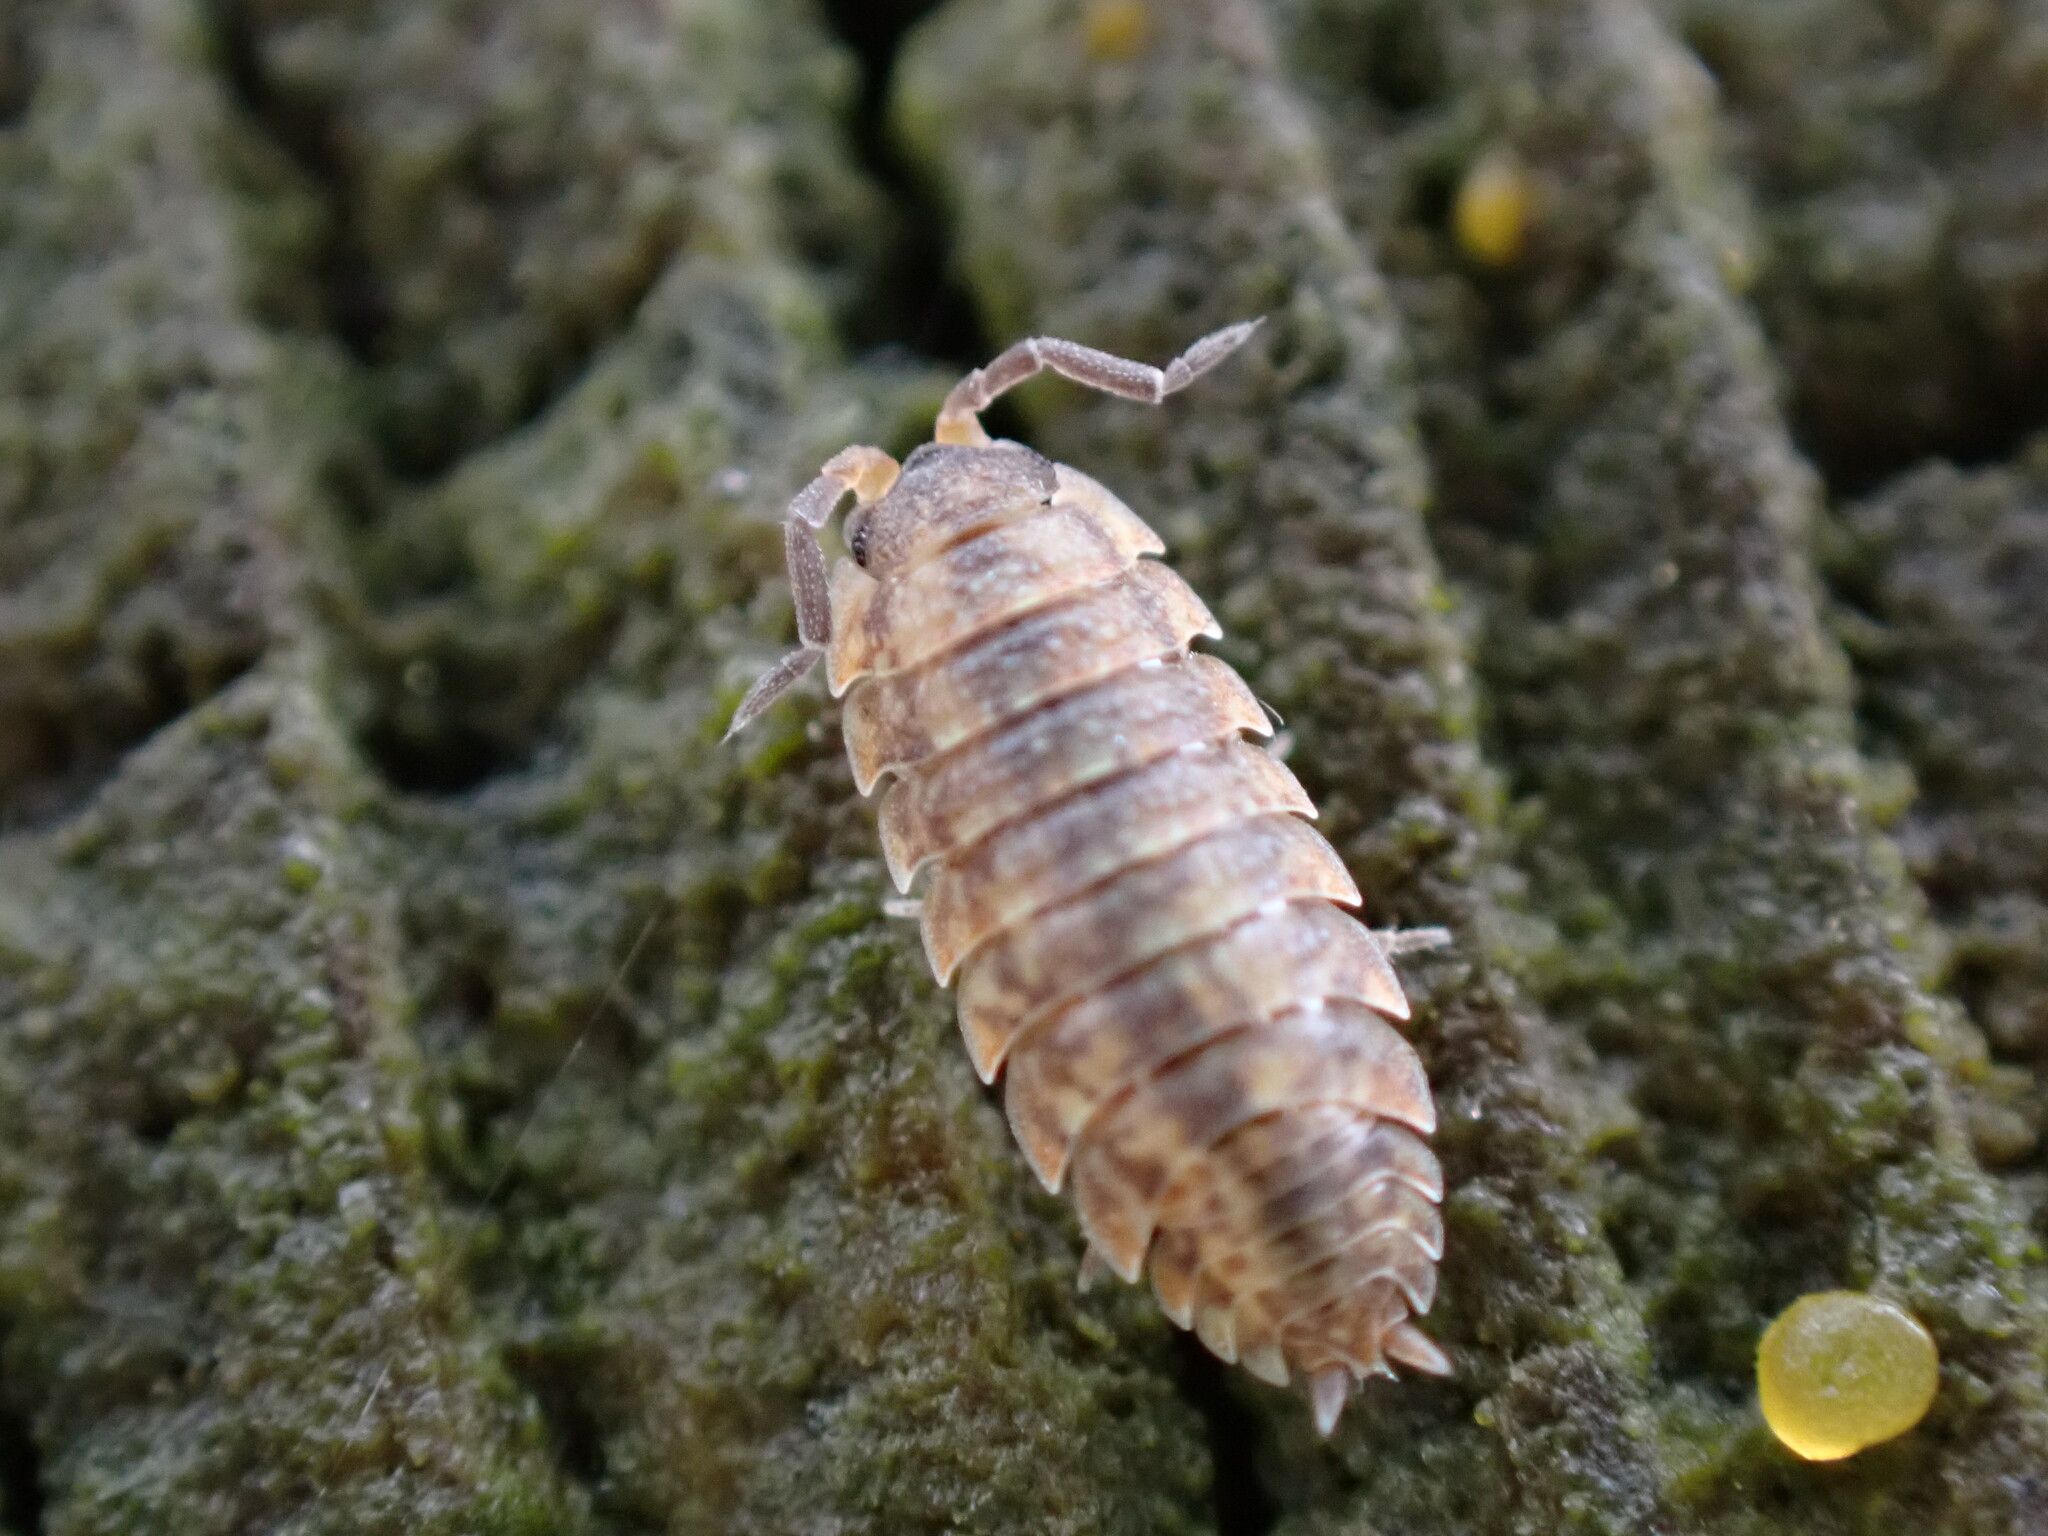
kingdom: Animalia
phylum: Arthropoda
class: Malacostraca
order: Isopoda
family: Porcellionidae
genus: Porcellio
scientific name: Porcellio scaber
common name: Common rough woodlouse
